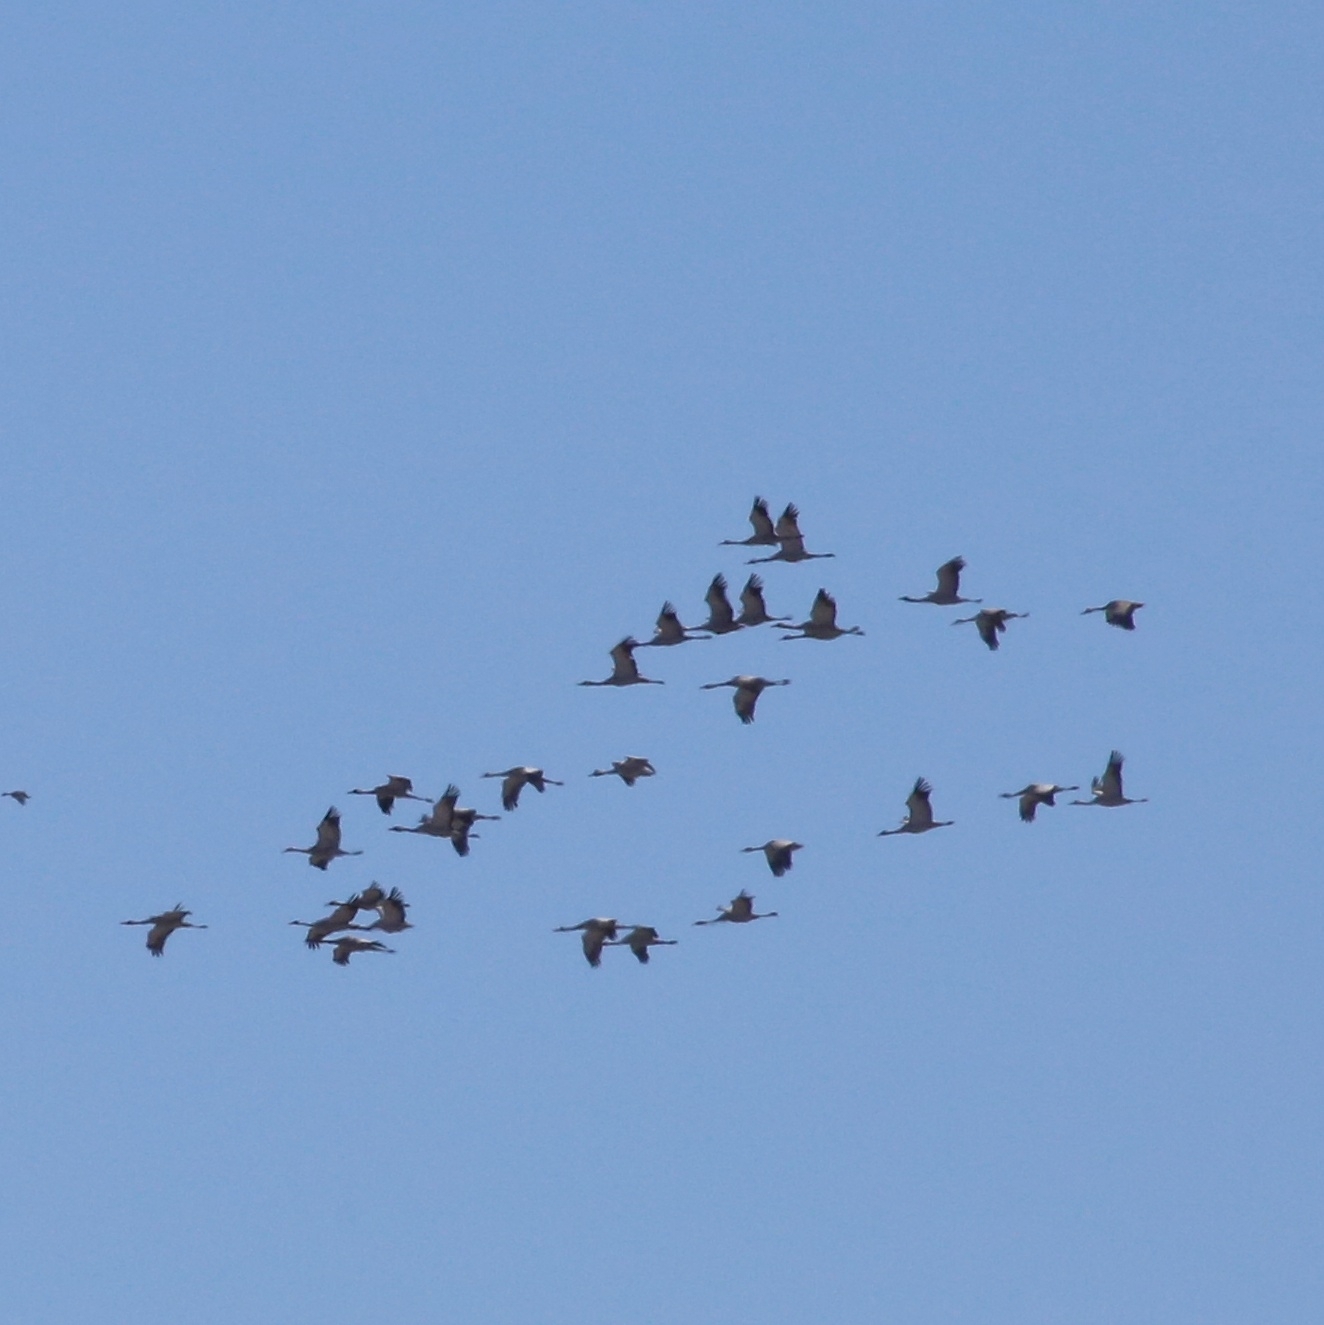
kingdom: Animalia
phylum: Chordata
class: Aves
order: Gruiformes
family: Gruidae
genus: Grus
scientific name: Grus grus
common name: Common crane
